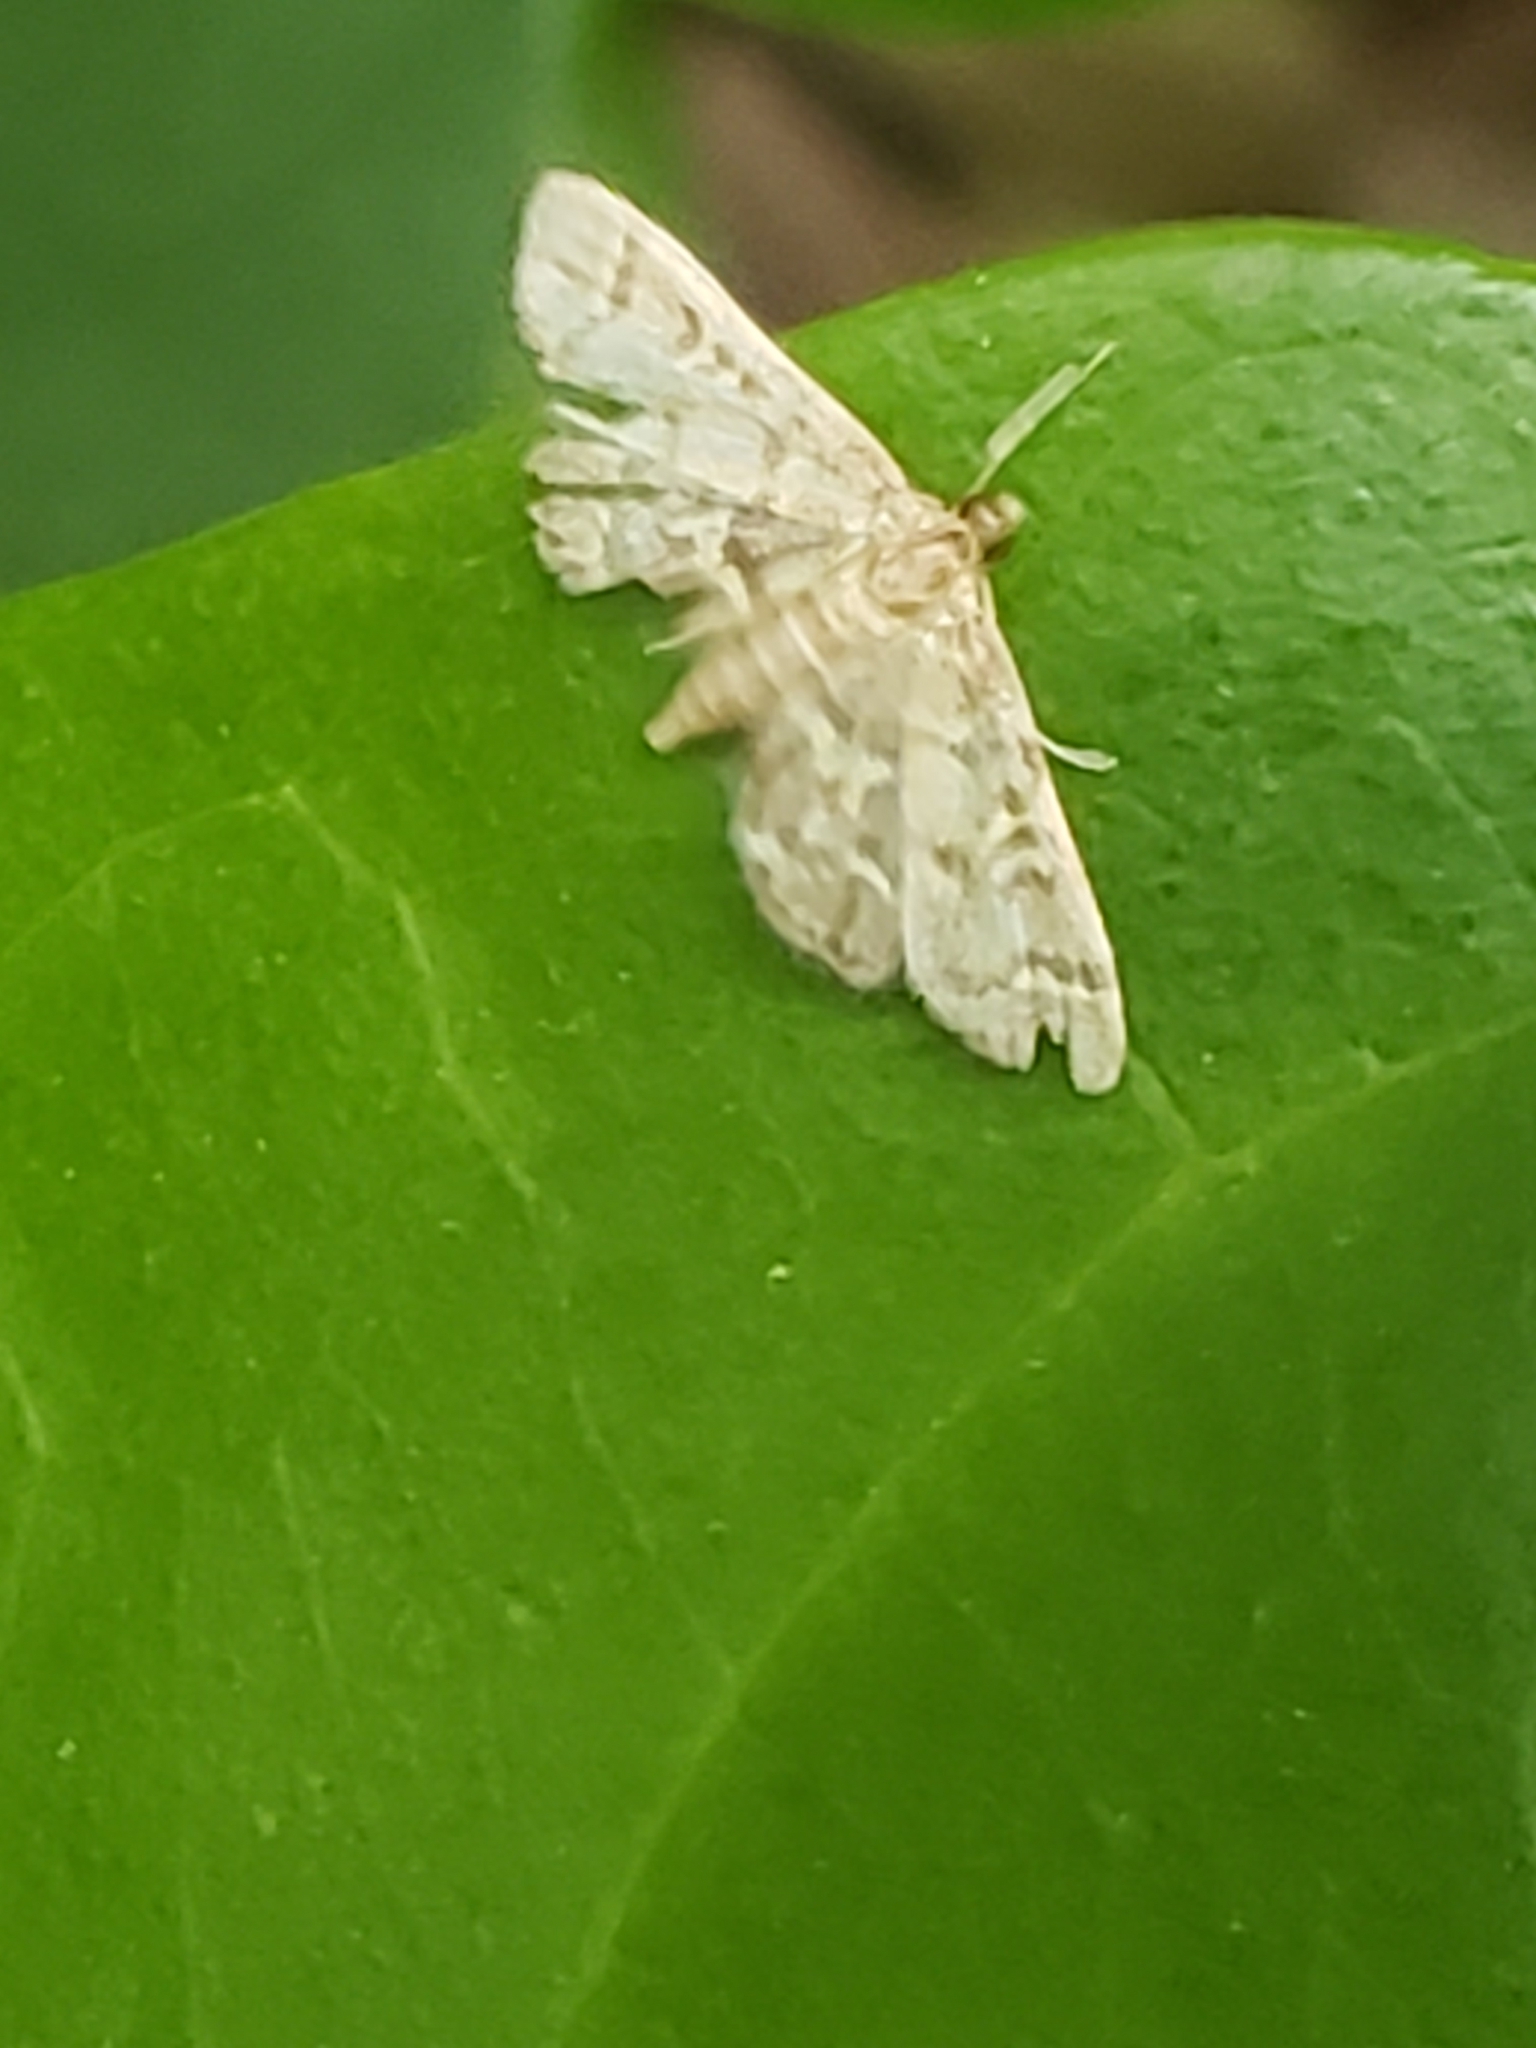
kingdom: Animalia
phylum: Arthropoda
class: Insecta
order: Lepidoptera
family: Crambidae
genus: Anageshna
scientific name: Anageshna primordialis
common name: Yellow-spotted webworm moth
